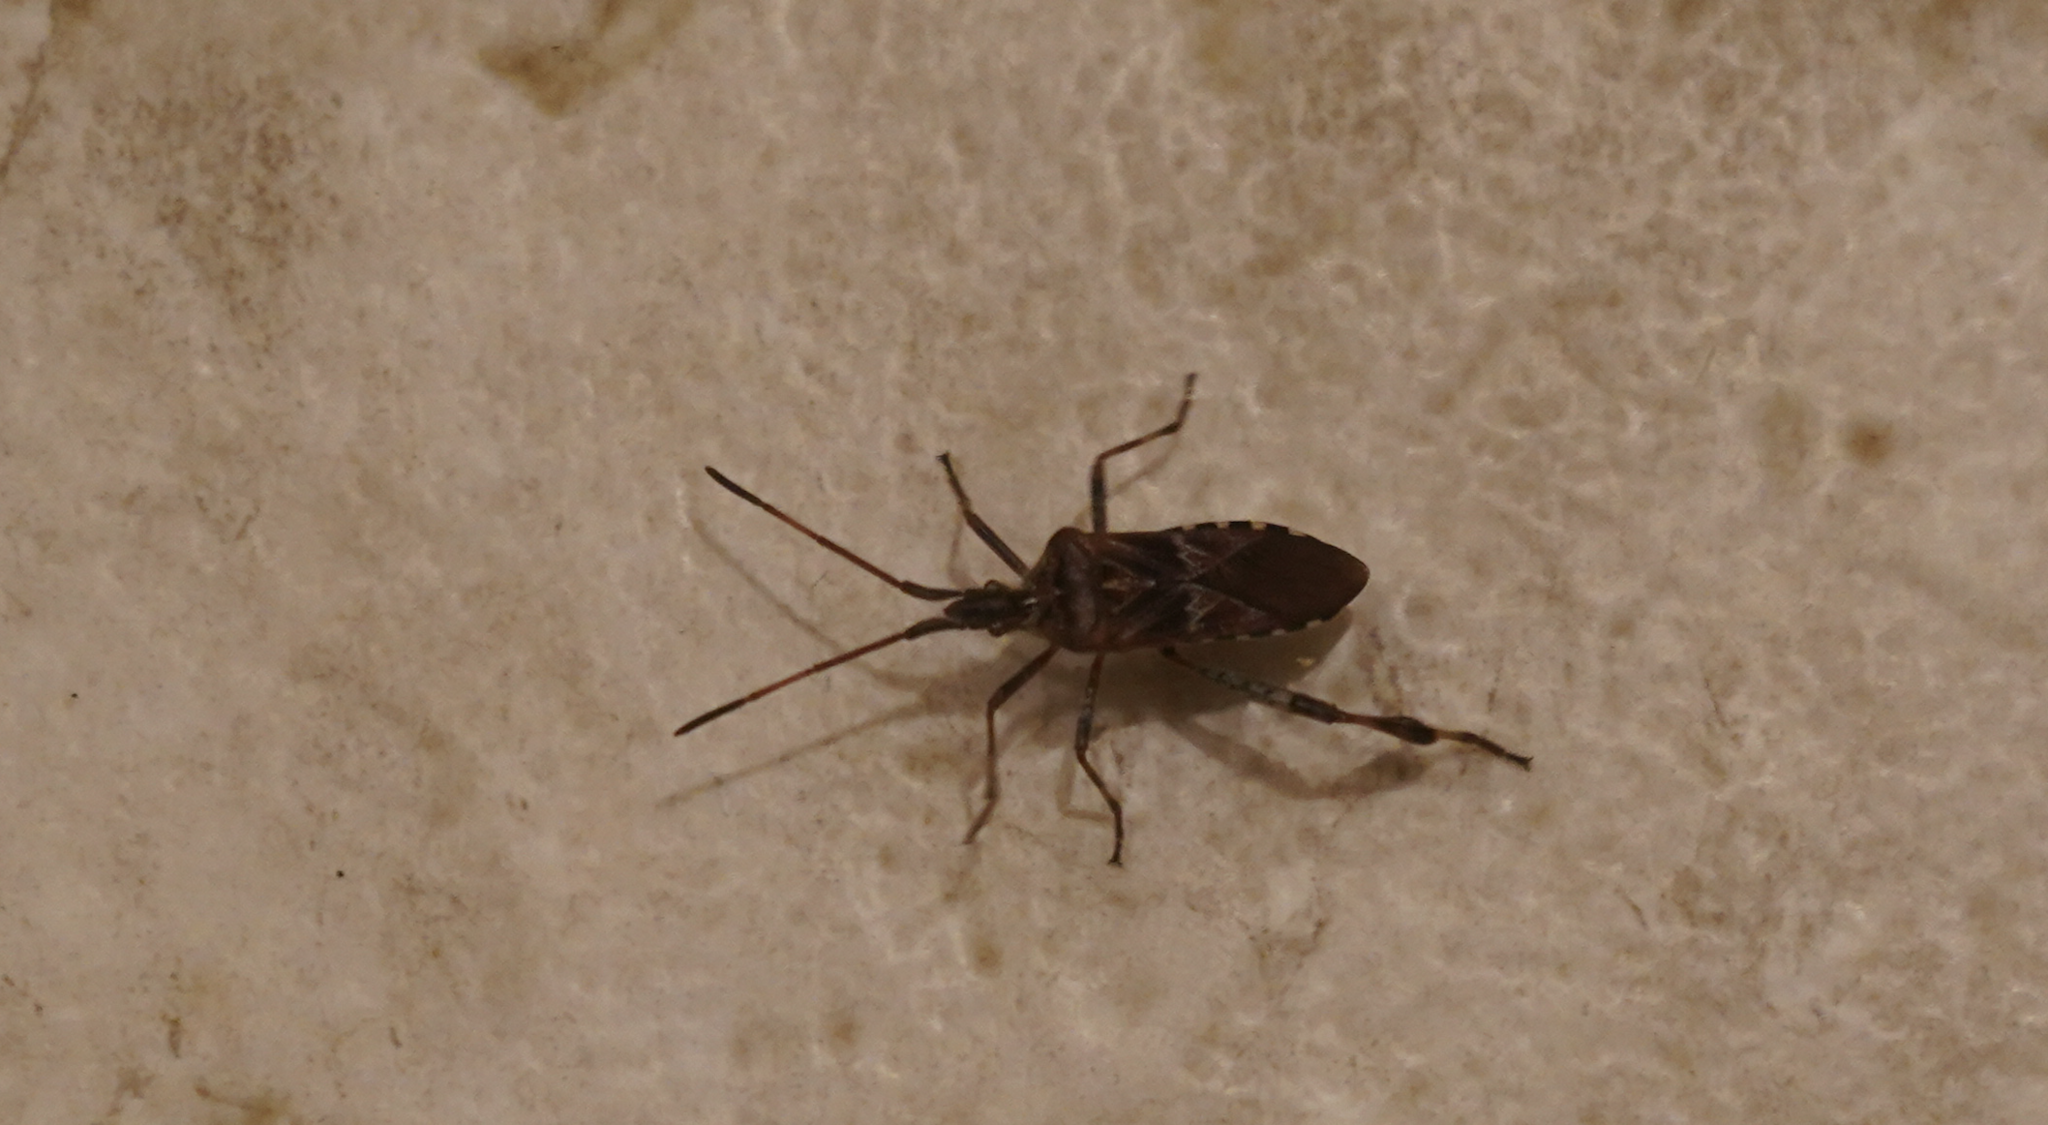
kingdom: Animalia
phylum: Arthropoda
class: Insecta
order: Hemiptera
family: Coreidae
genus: Leptoglossus
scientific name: Leptoglossus occidentalis
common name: Western conifer-seed bug
